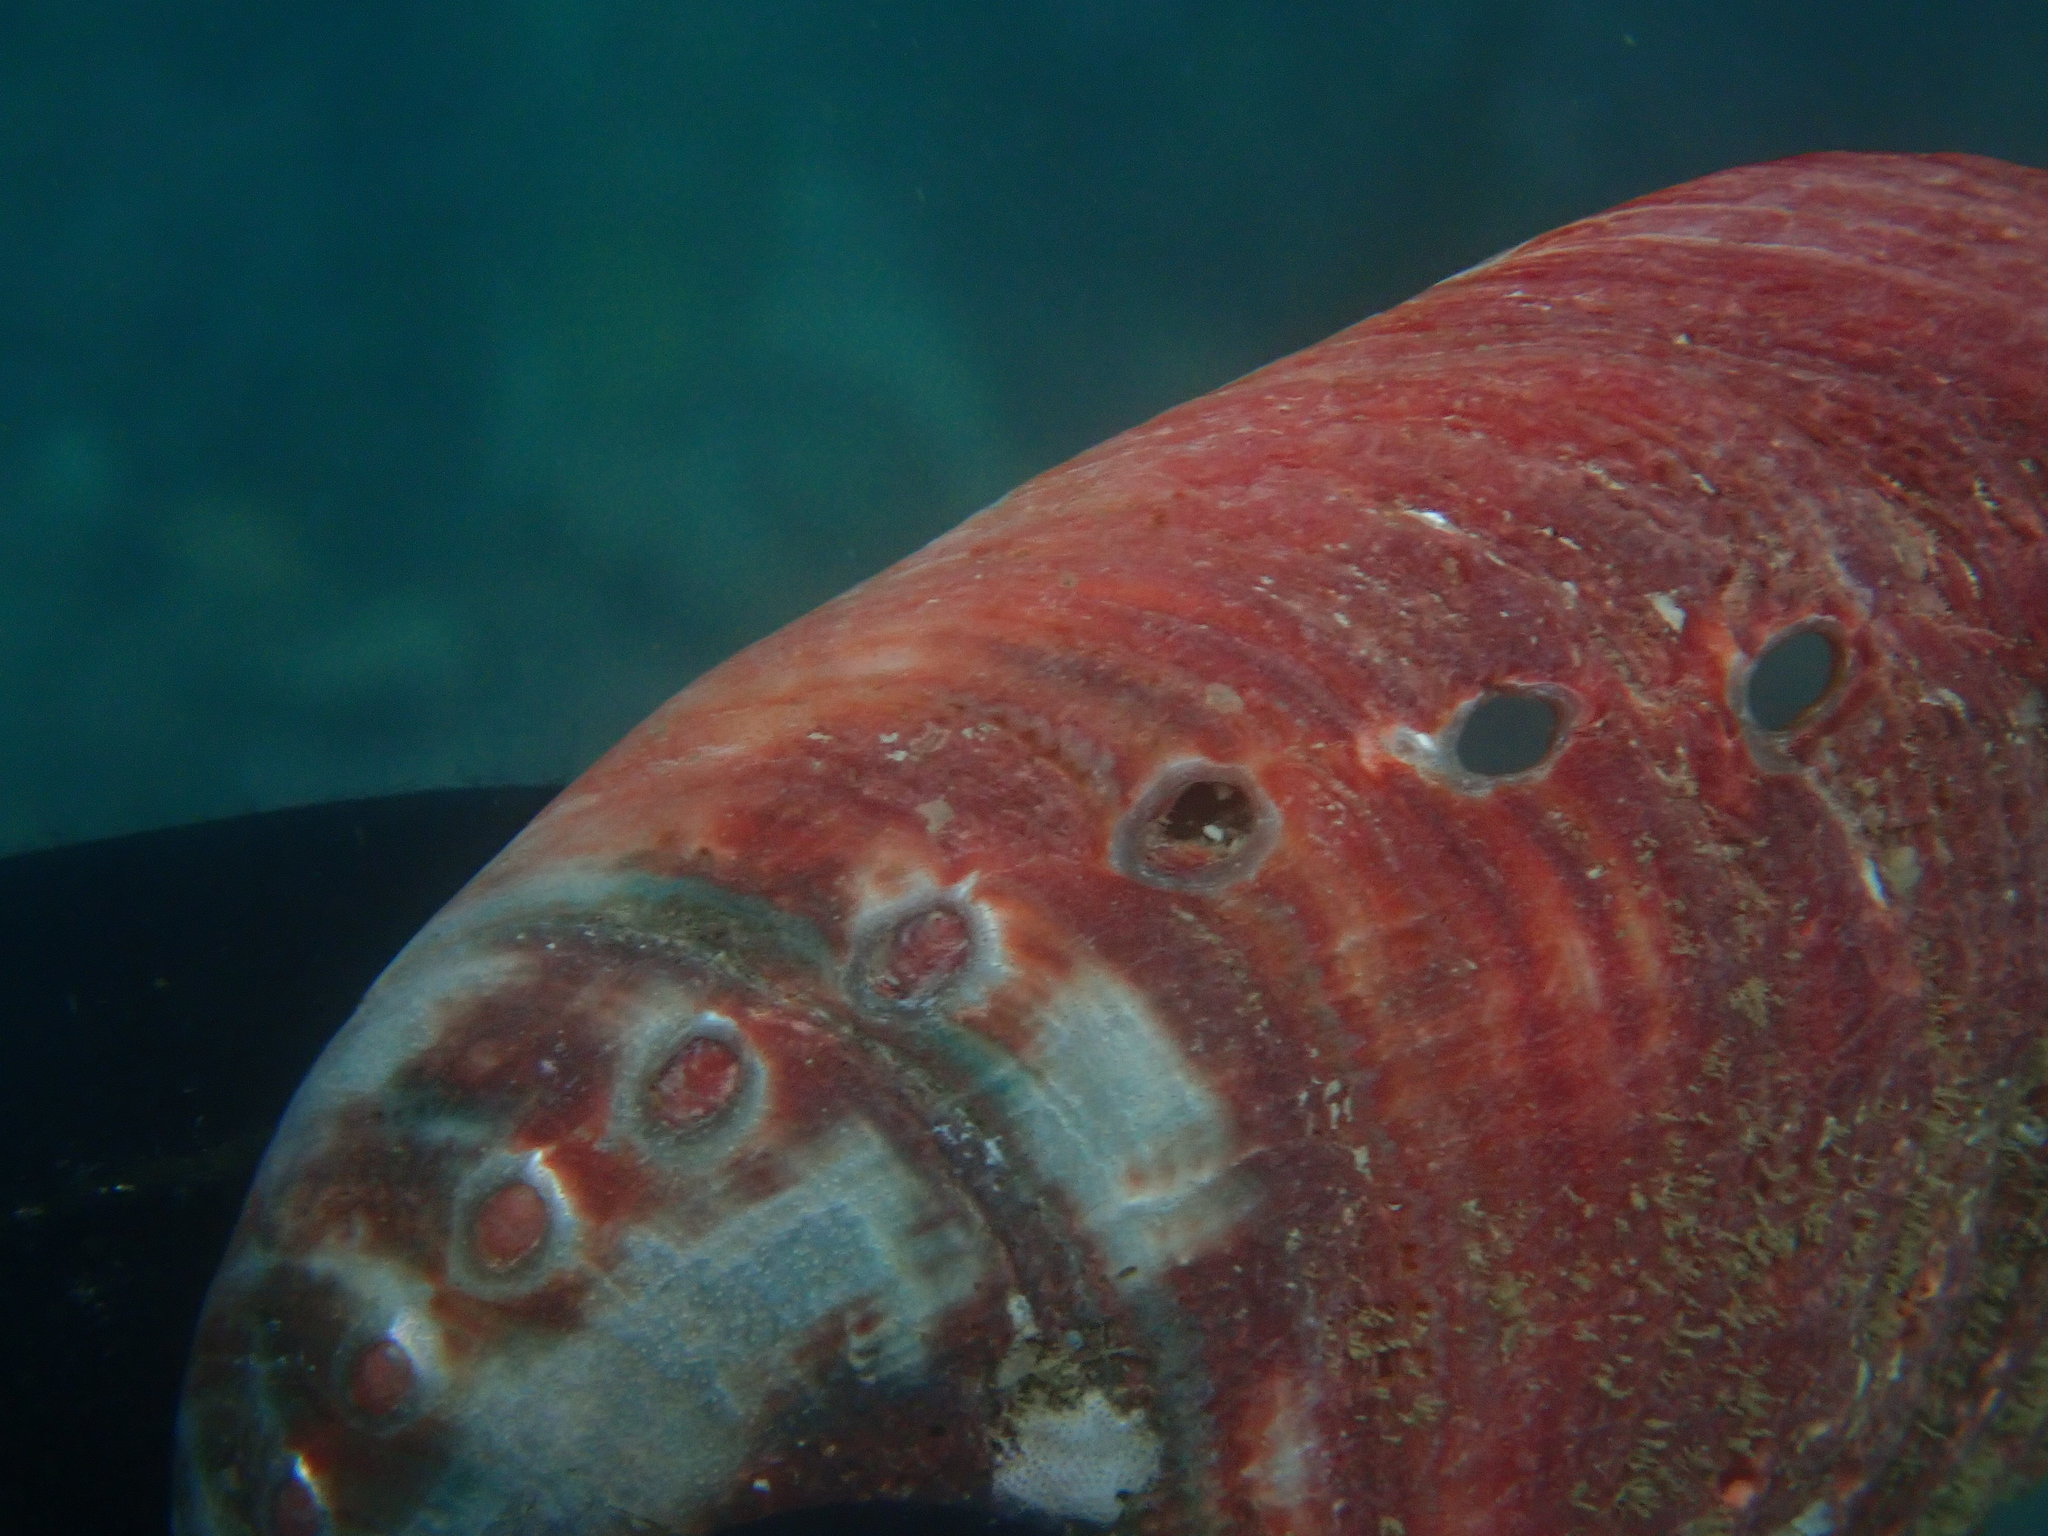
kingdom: Animalia
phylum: Mollusca
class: Gastropoda
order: Lepetellida
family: Haliotidae
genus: Haliotis
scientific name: Haliotis rufescens
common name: Red abalone
